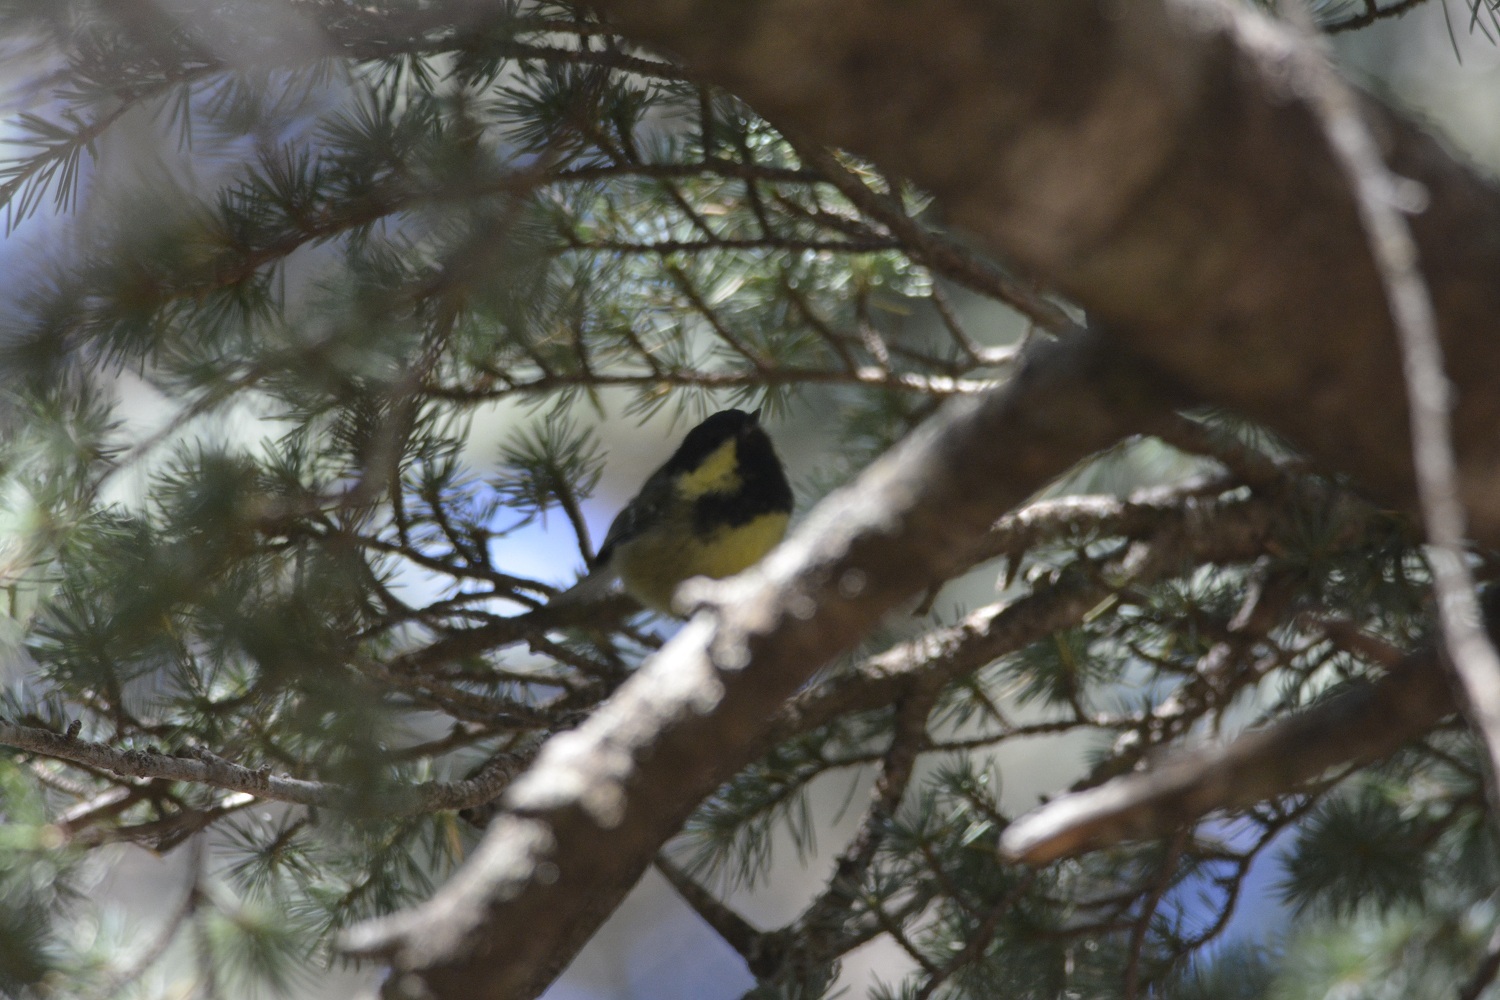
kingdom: Animalia
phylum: Chordata
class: Aves
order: Passeriformes
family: Paridae
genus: Periparus
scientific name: Periparus ater
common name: Coal tit
